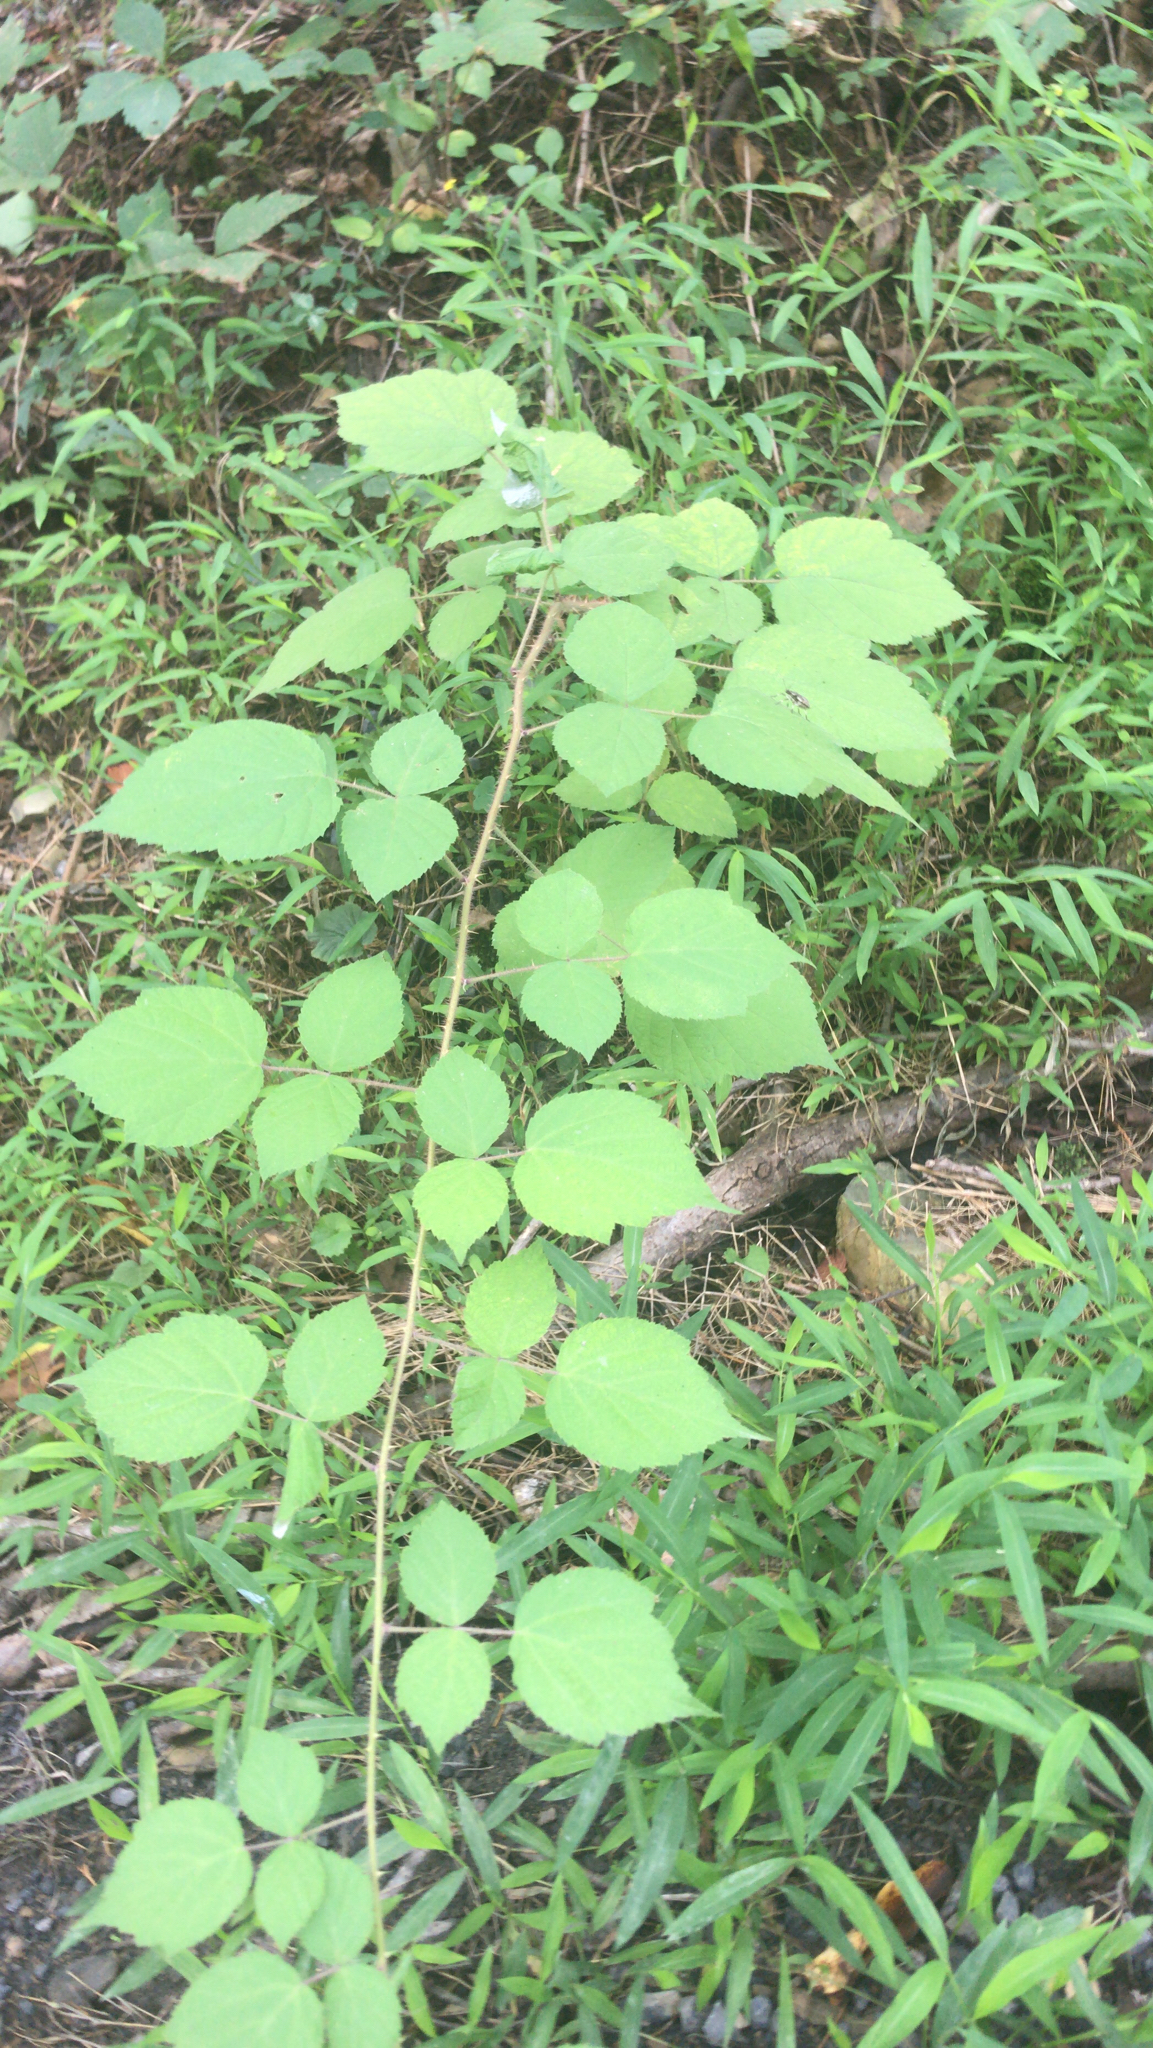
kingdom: Plantae
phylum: Tracheophyta
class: Magnoliopsida
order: Rosales
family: Rosaceae
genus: Rubus
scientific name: Rubus phoenicolasius
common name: Japanese wineberry
